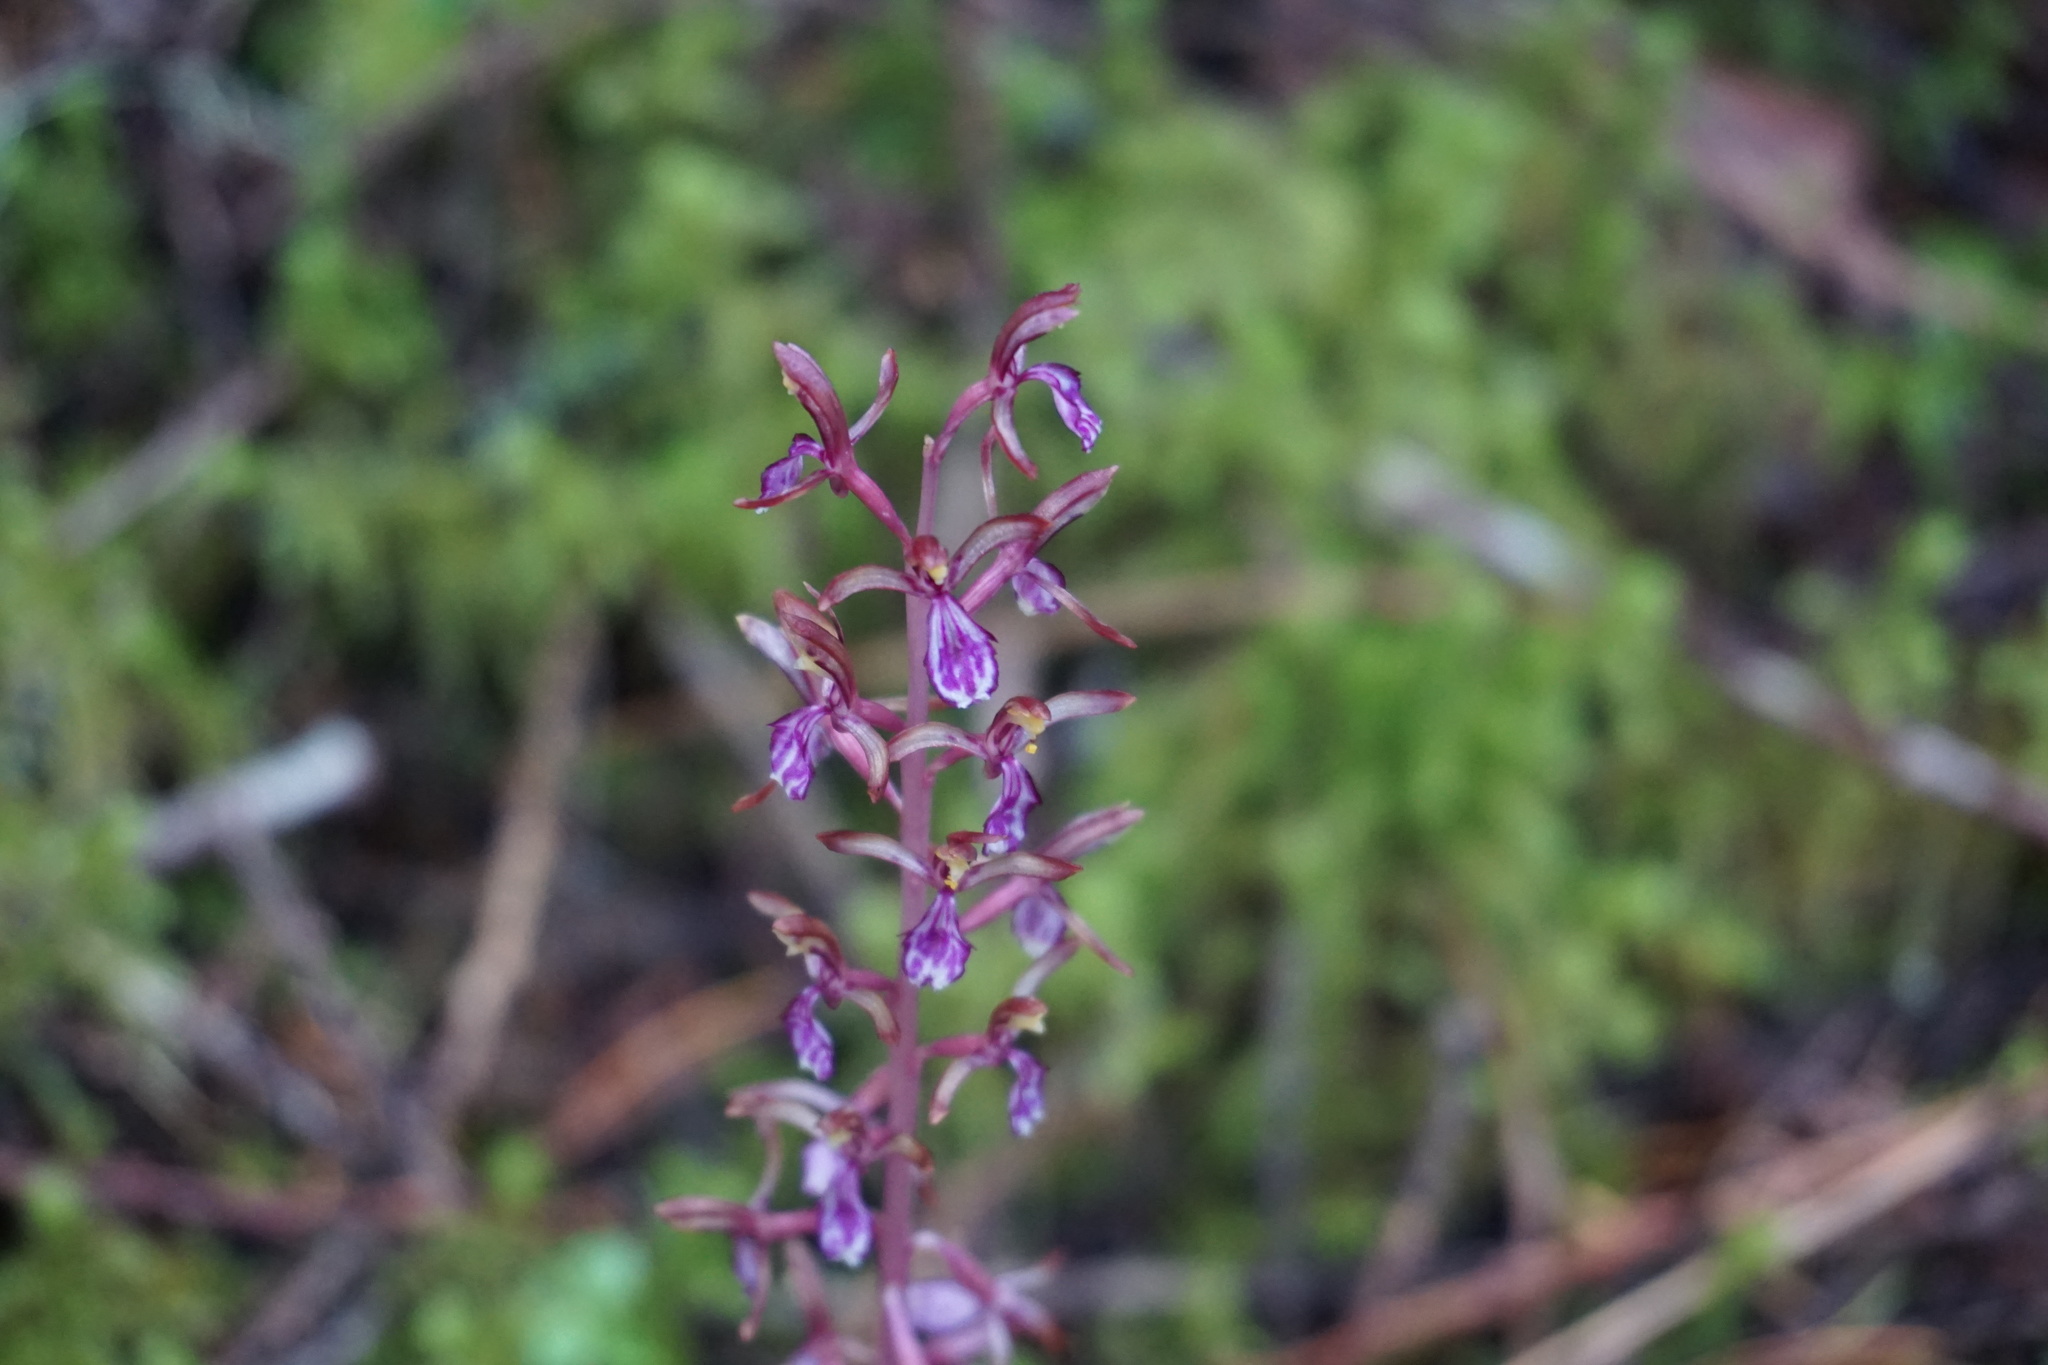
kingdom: Plantae
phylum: Tracheophyta
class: Liliopsida
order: Asparagales
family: Orchidaceae
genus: Corallorhiza
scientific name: Corallorhiza mertensiana
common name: Pacific coralroot
